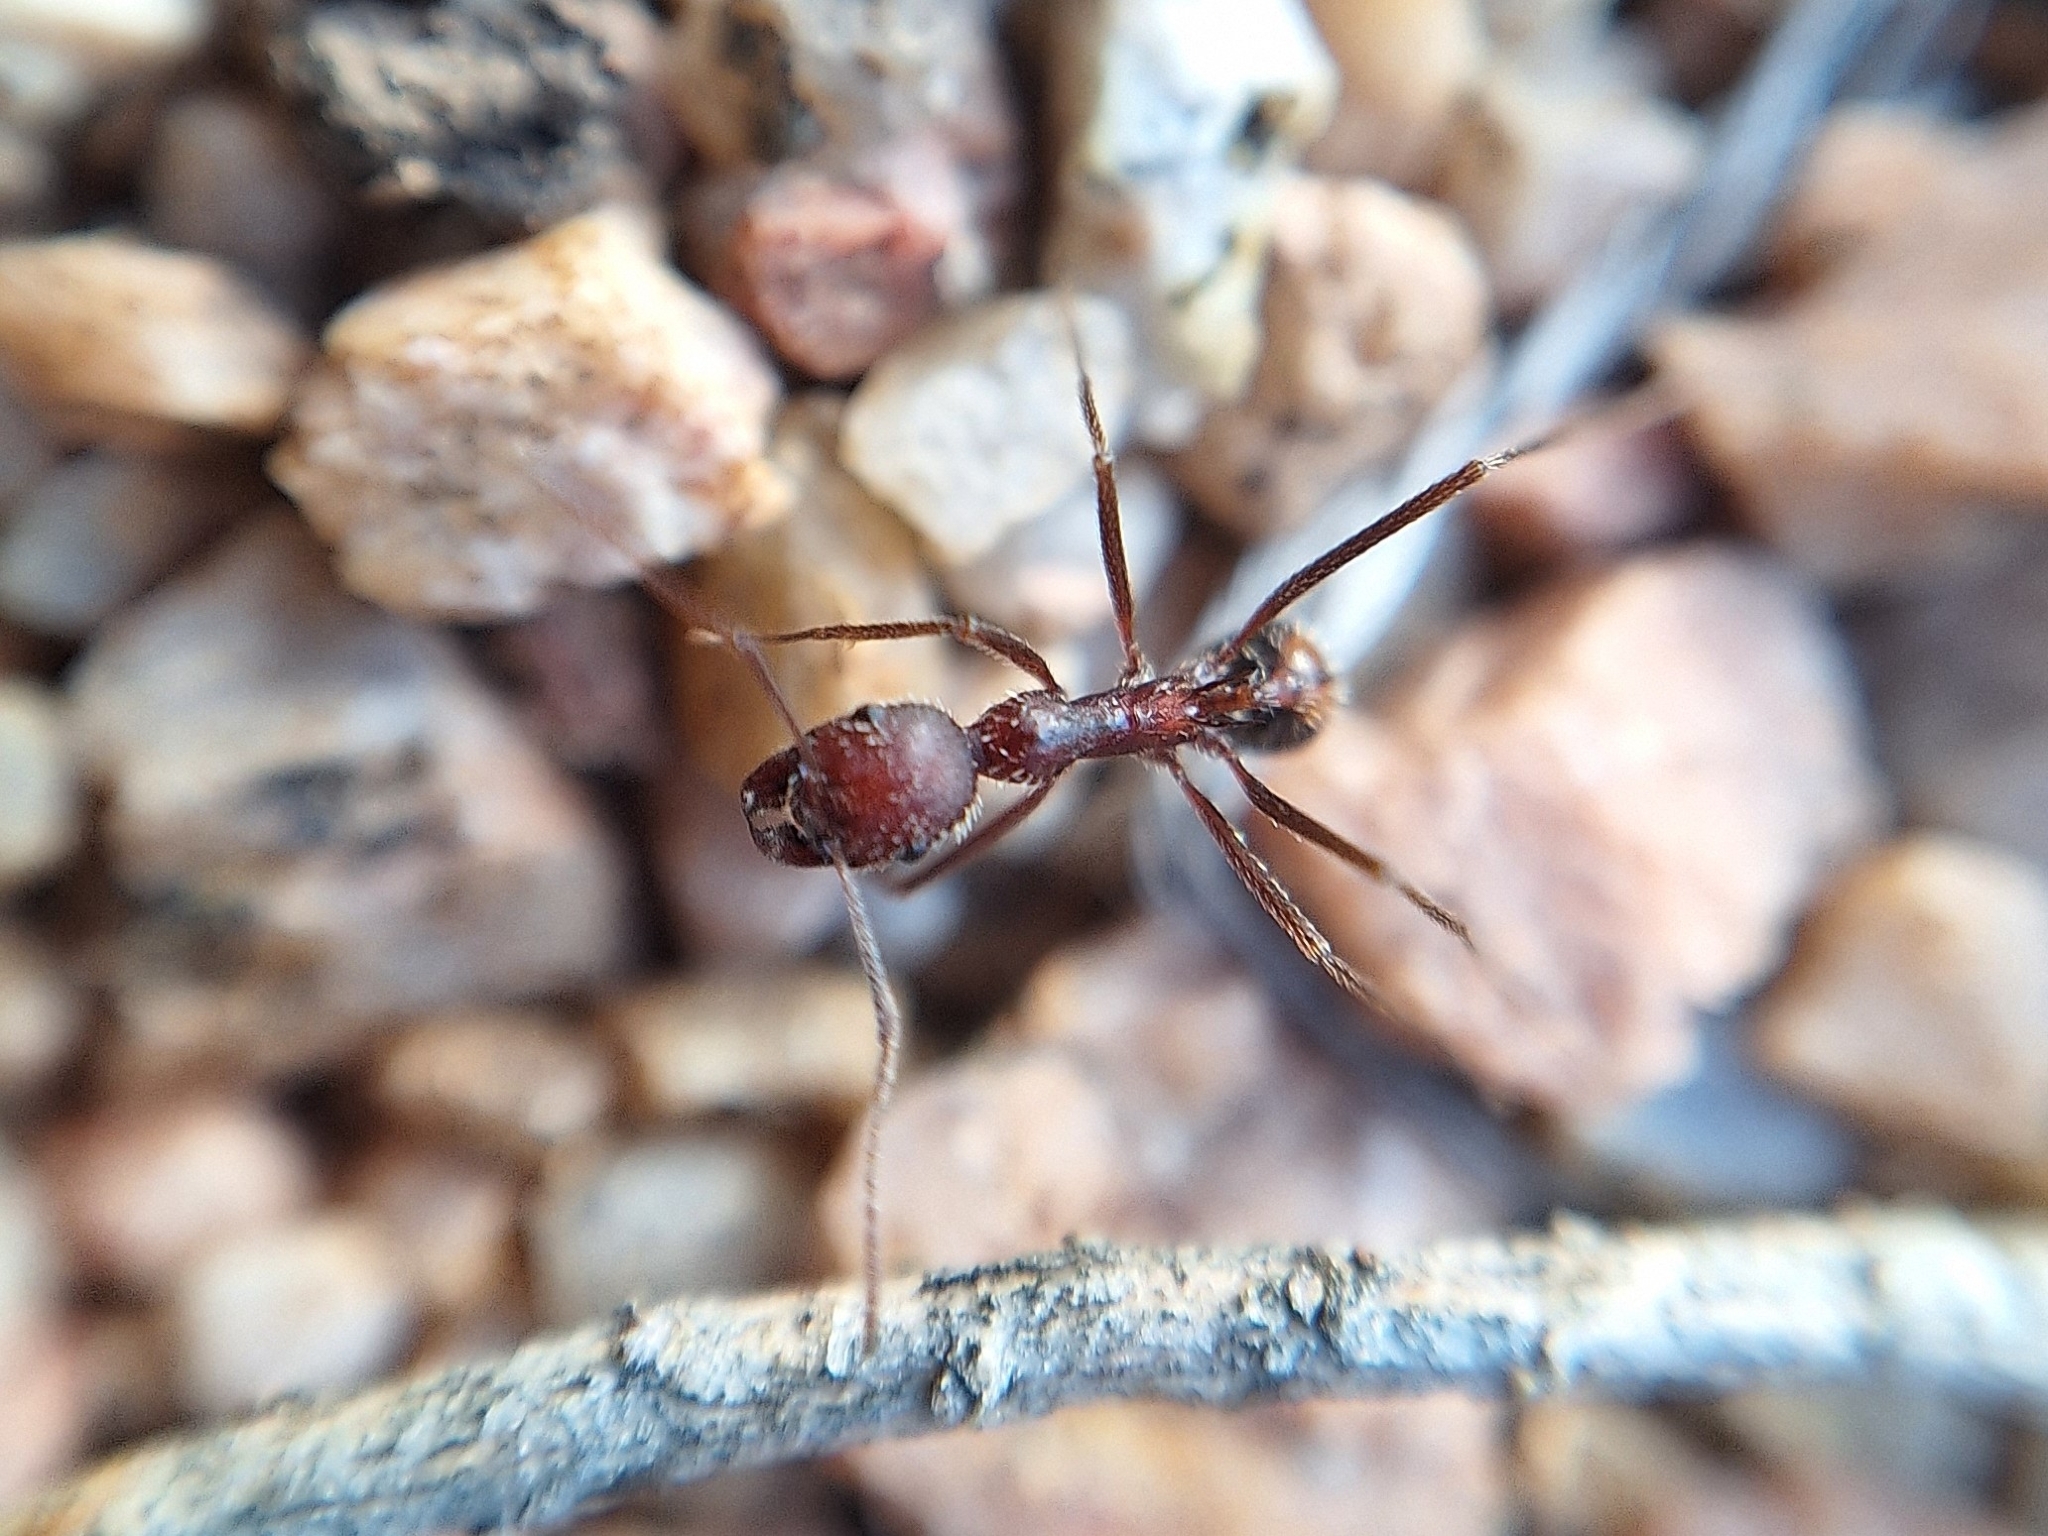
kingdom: Animalia
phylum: Arthropoda
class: Insecta
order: Hymenoptera
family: Formicidae
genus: Novomessor
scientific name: Novomessor albisetosa
